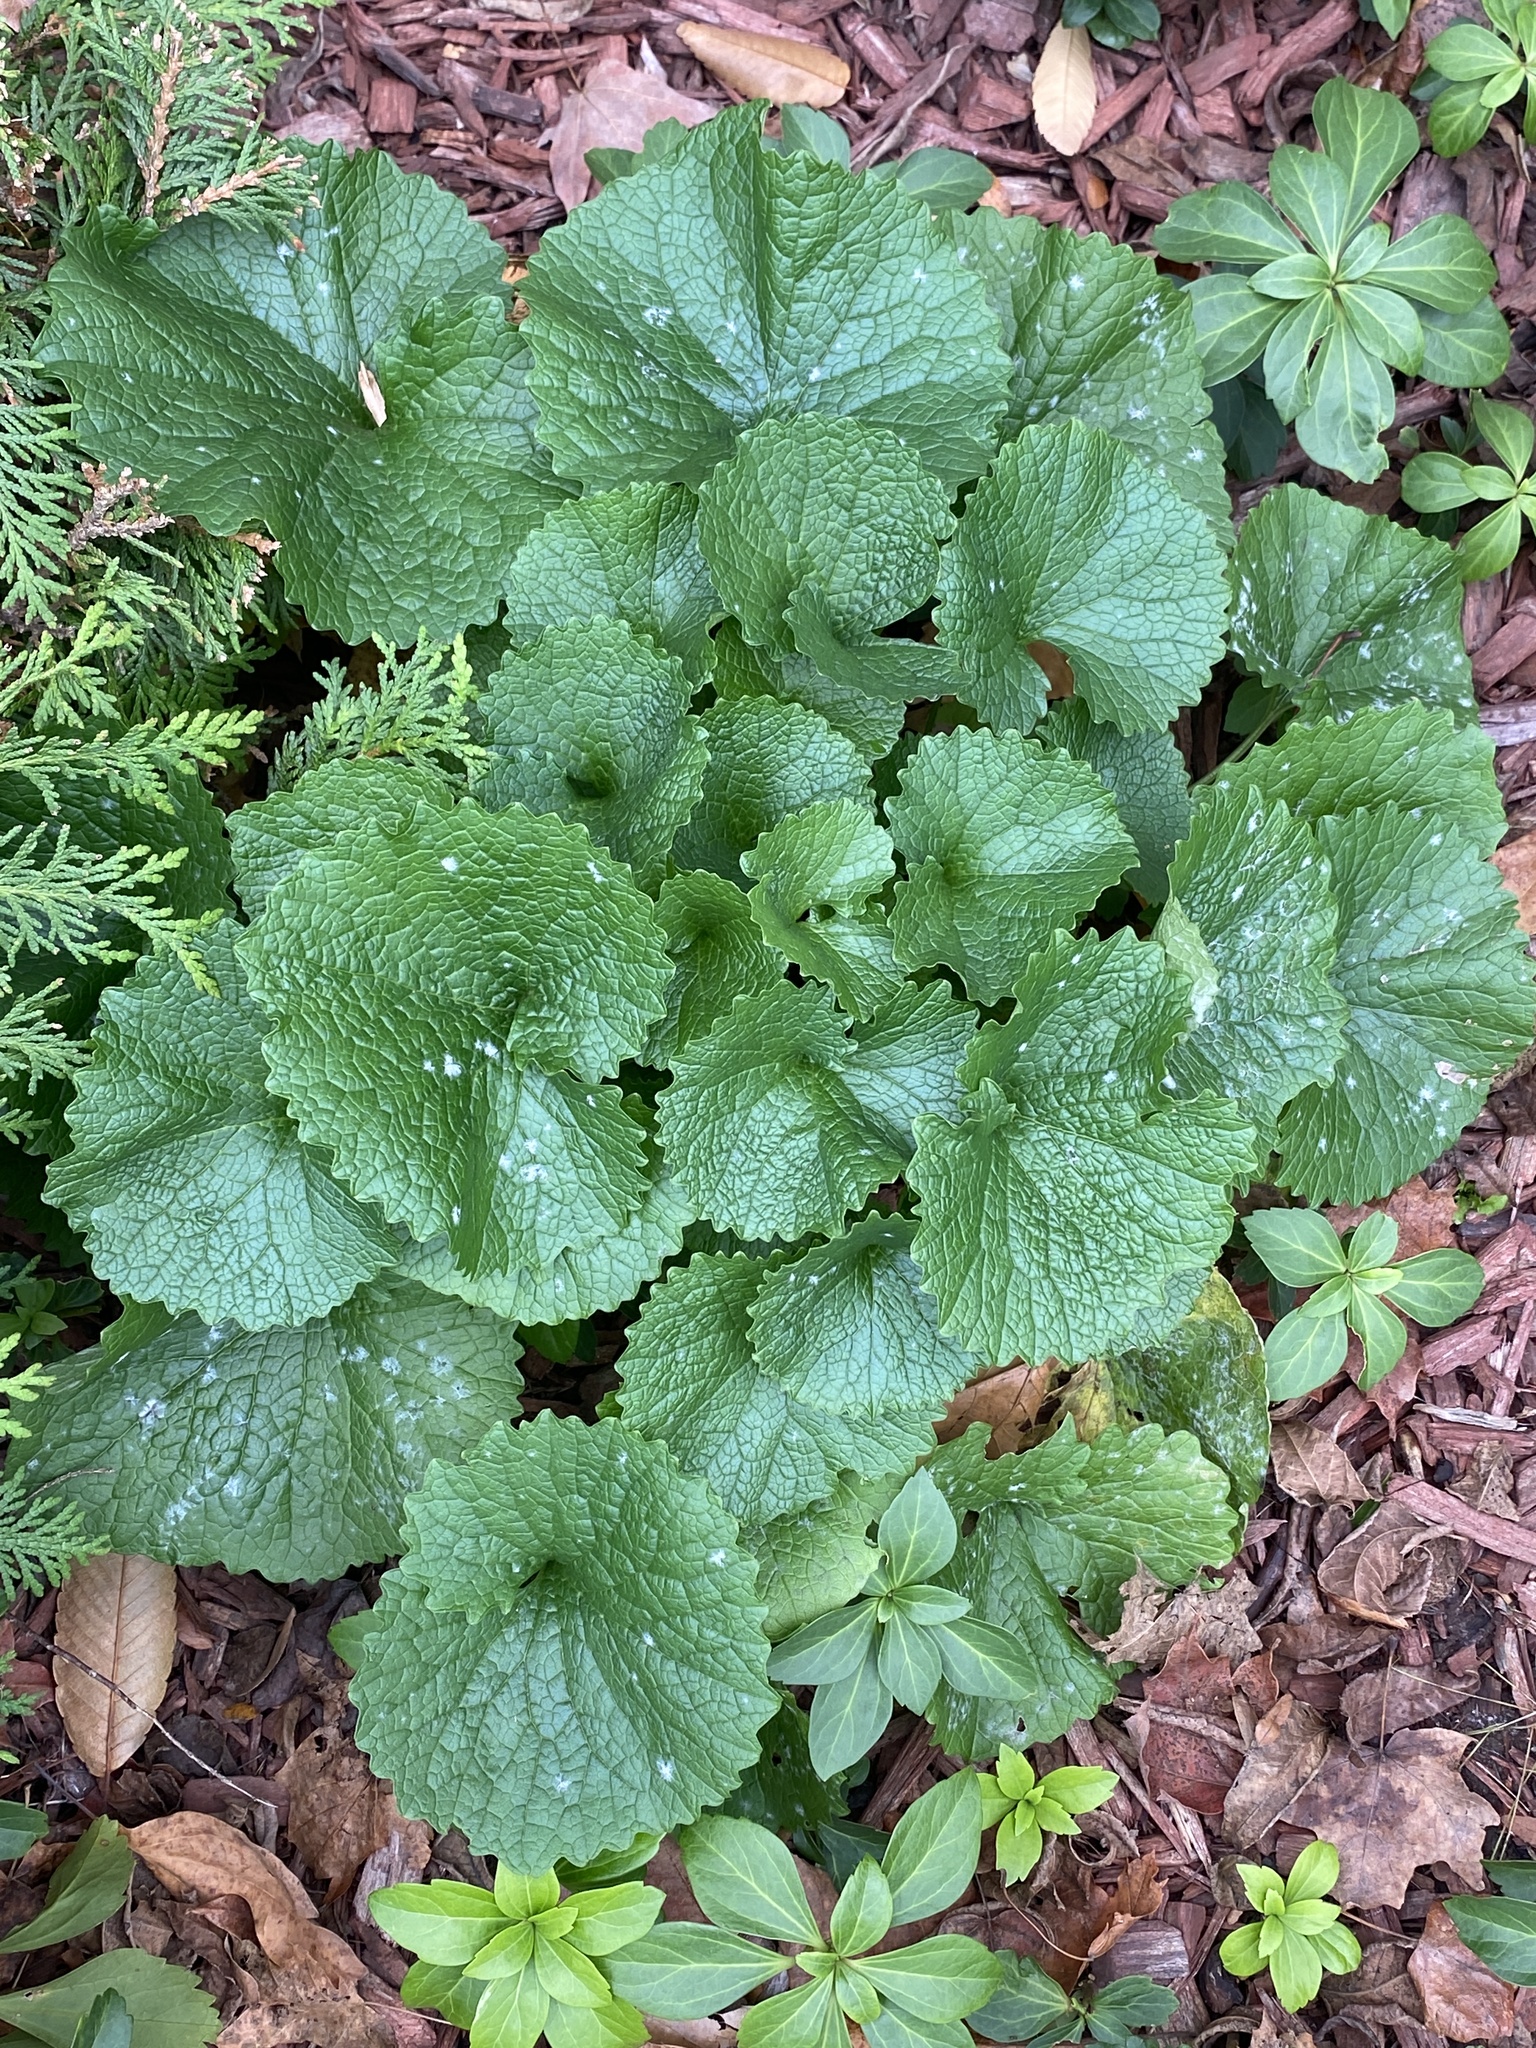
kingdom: Plantae
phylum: Tracheophyta
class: Magnoliopsida
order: Brassicales
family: Brassicaceae
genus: Alliaria
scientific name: Alliaria petiolata
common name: Garlic mustard
